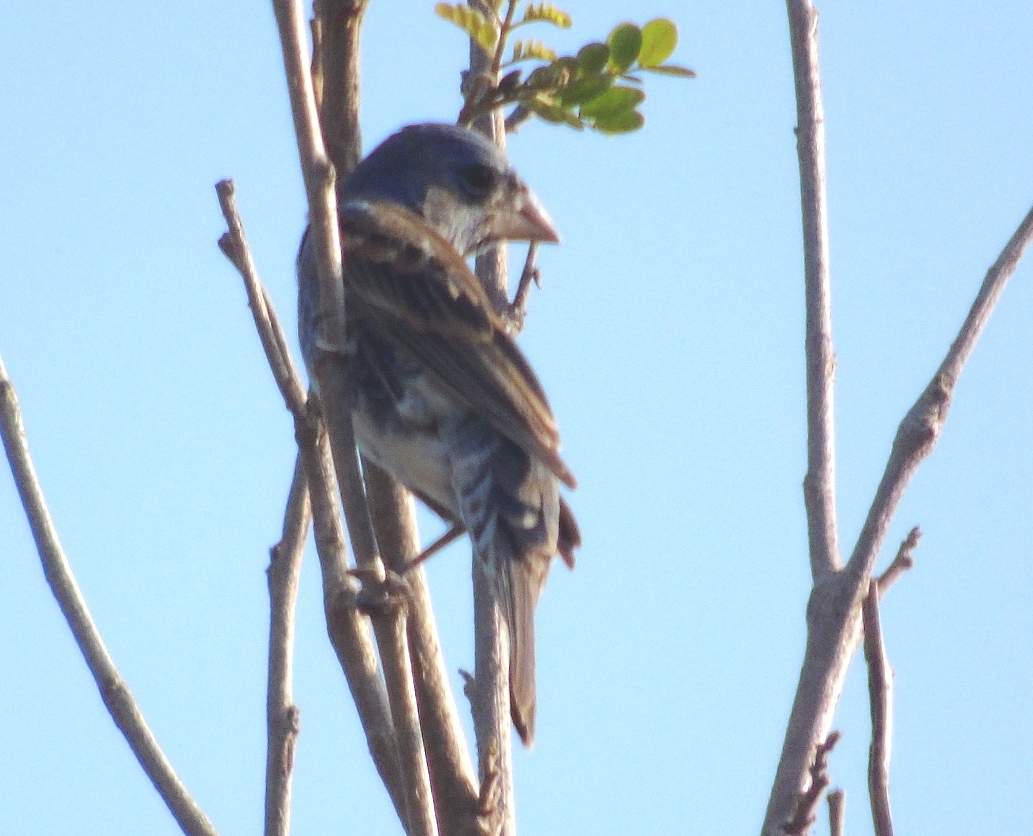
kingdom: Animalia
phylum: Chordata
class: Aves
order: Passeriformes
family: Cardinalidae
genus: Passerina
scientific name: Passerina caerulea
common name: Blue grosbeak
